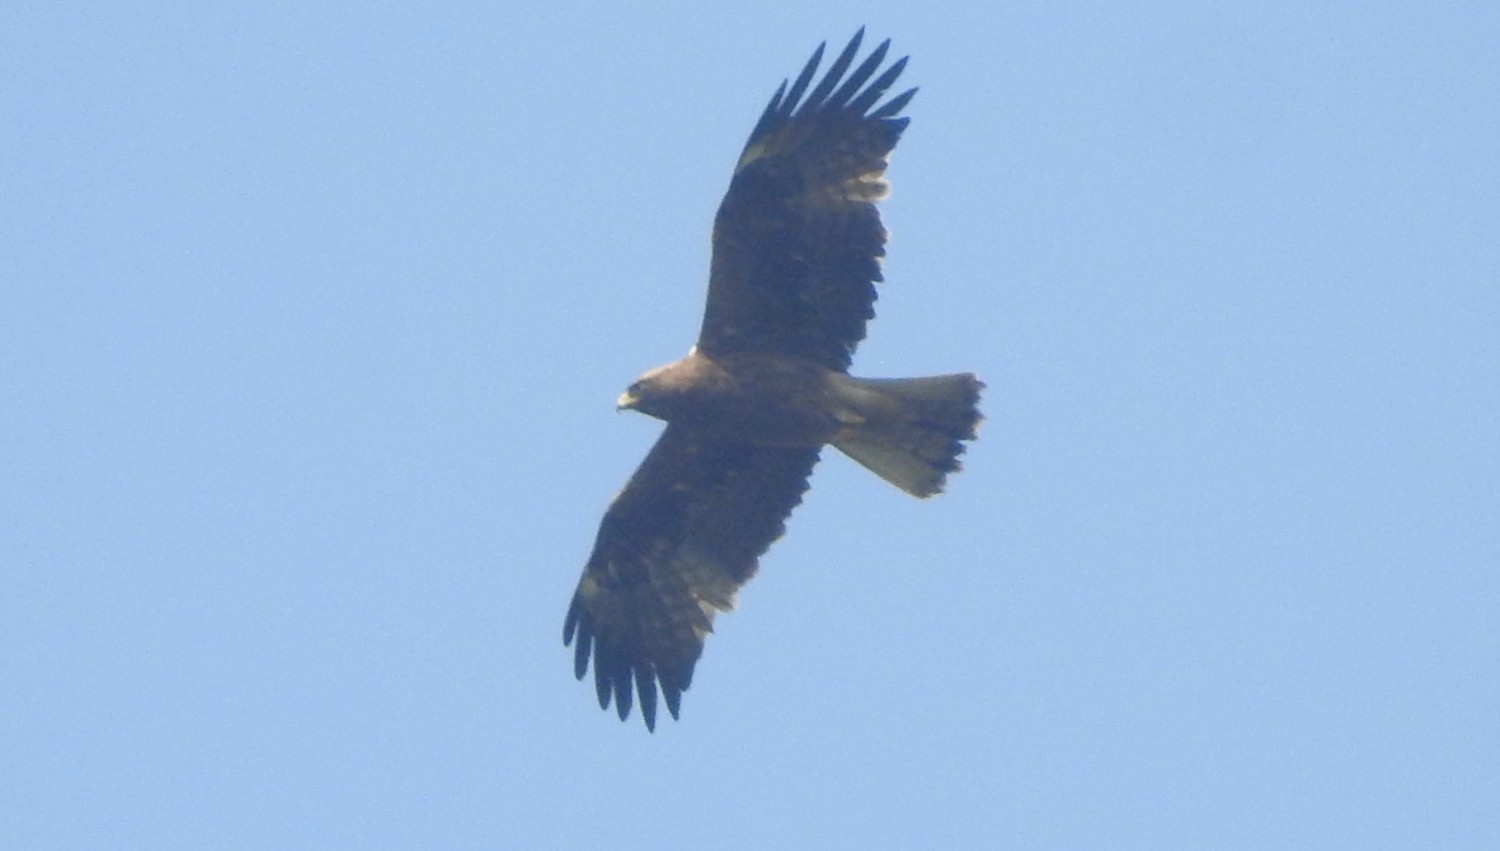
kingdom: Animalia
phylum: Chordata
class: Aves
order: Accipitriformes
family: Accipitridae
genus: Hieraaetus
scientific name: Hieraaetus pennatus
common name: Booted eagle
